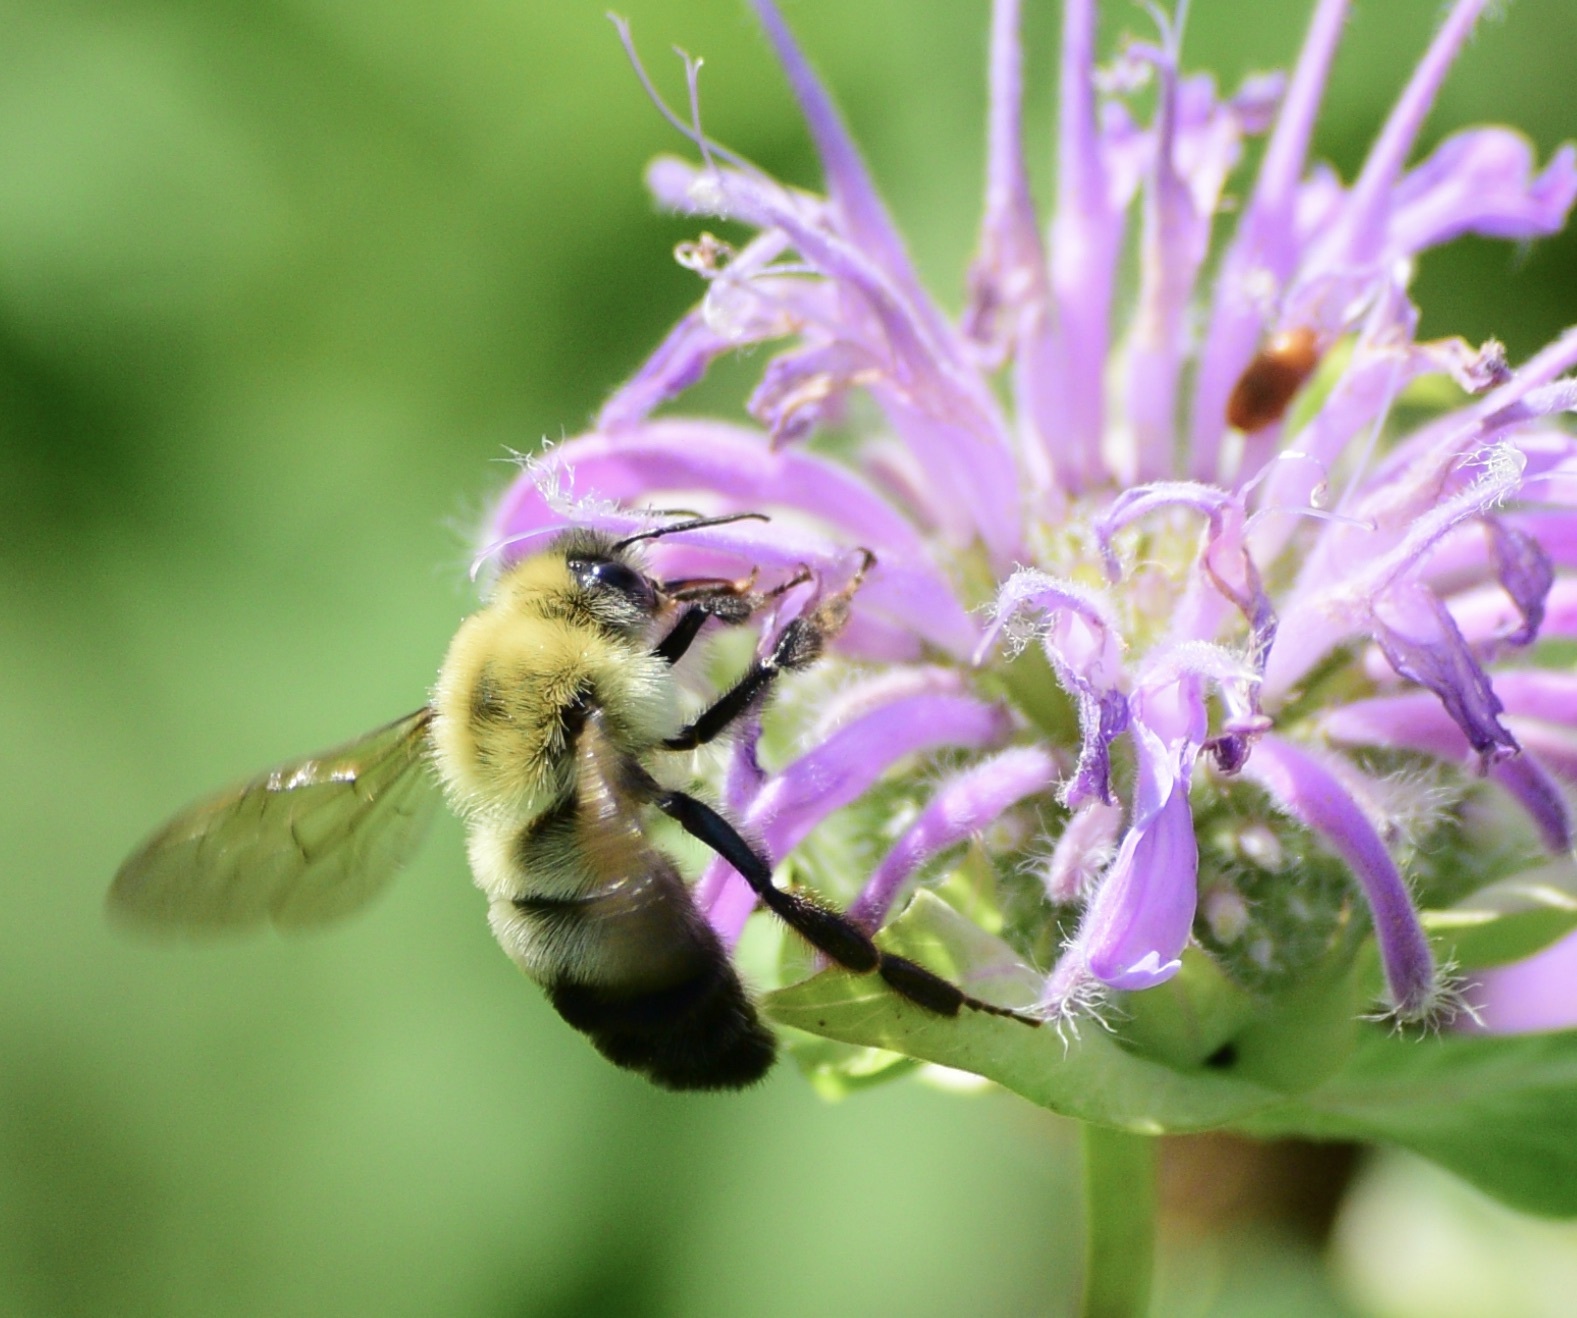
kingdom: Animalia
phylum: Arthropoda
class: Insecta
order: Hymenoptera
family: Apidae
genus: Pyrobombus
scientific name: Pyrobombus
